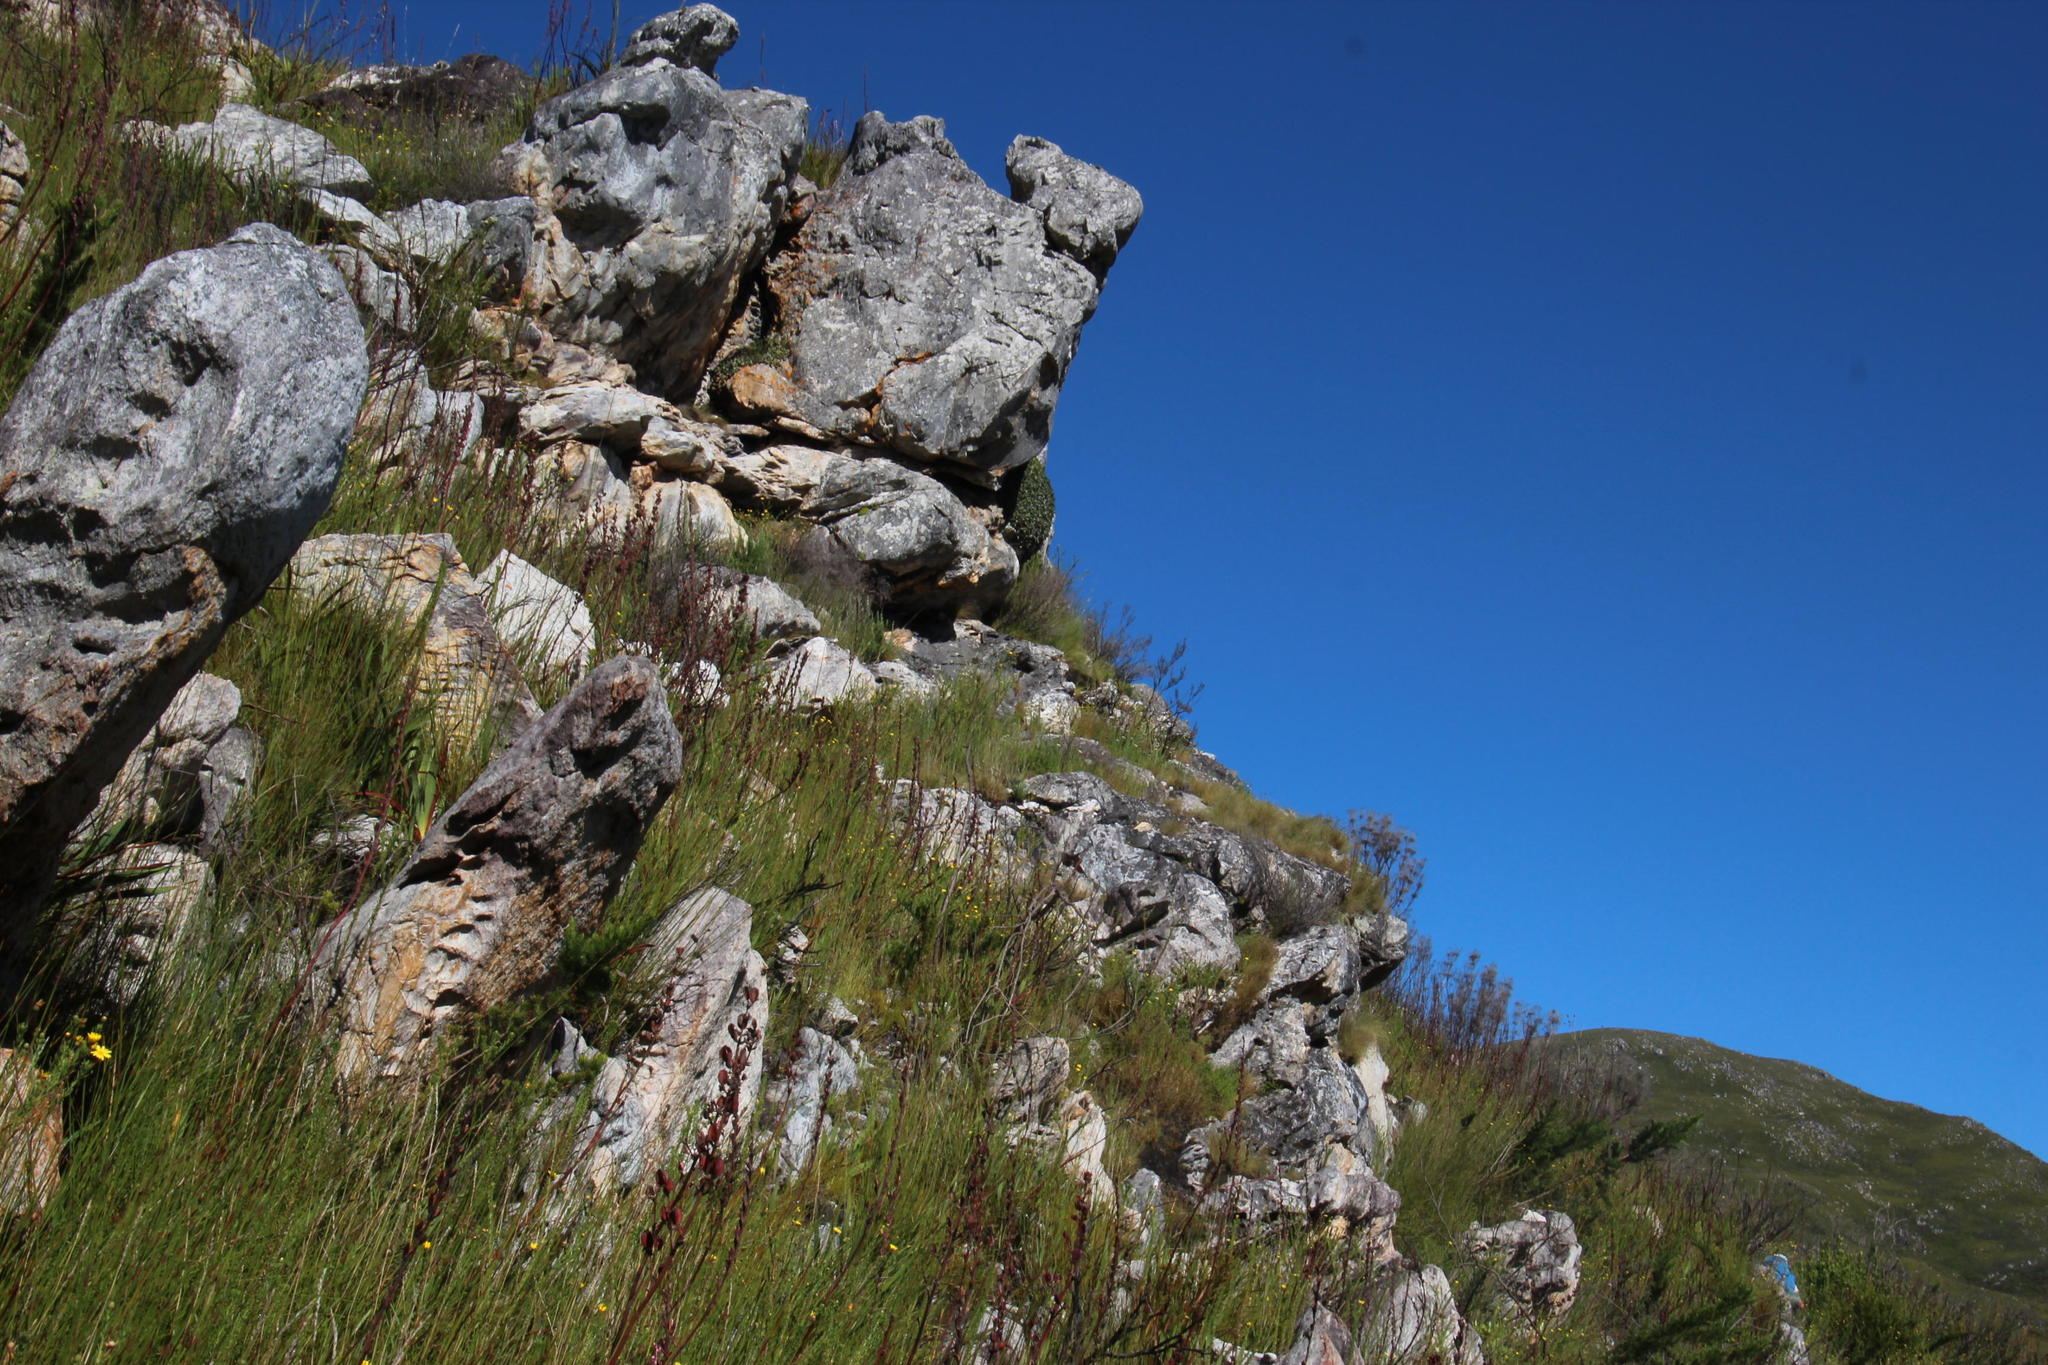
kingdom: Plantae
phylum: Tracheophyta
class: Magnoliopsida
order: Asterales
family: Asteraceae
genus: Oldenburgia
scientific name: Oldenburgia paradoxa
